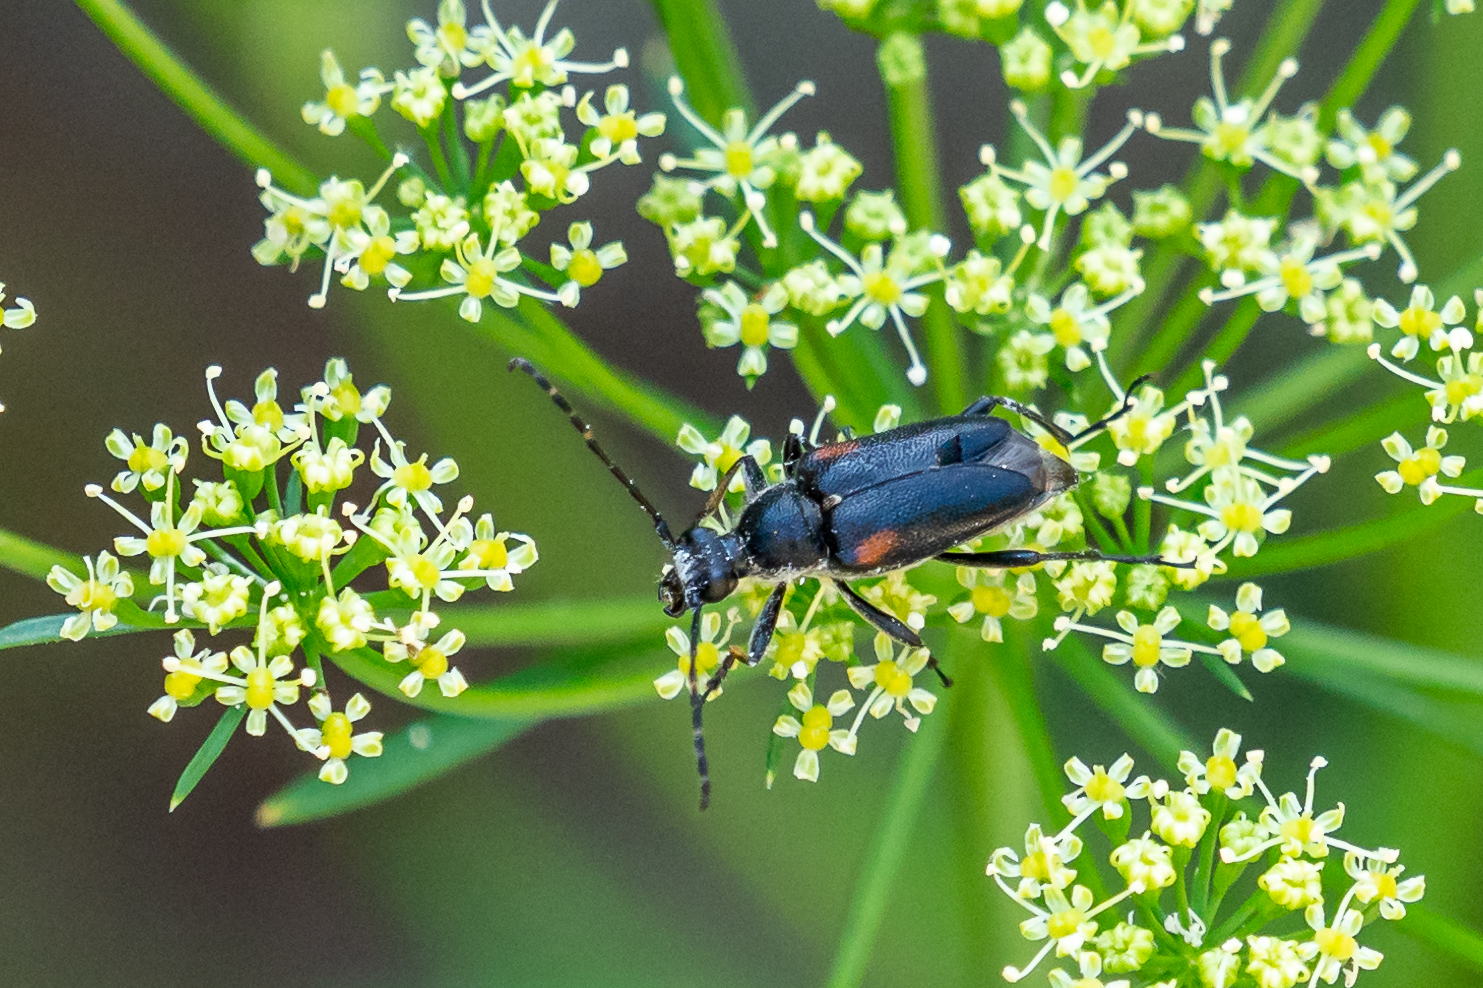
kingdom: Animalia
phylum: Arthropoda
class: Insecta
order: Coleoptera
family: Cerambycidae
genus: Brachyleptura
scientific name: Brachyleptura vagans
